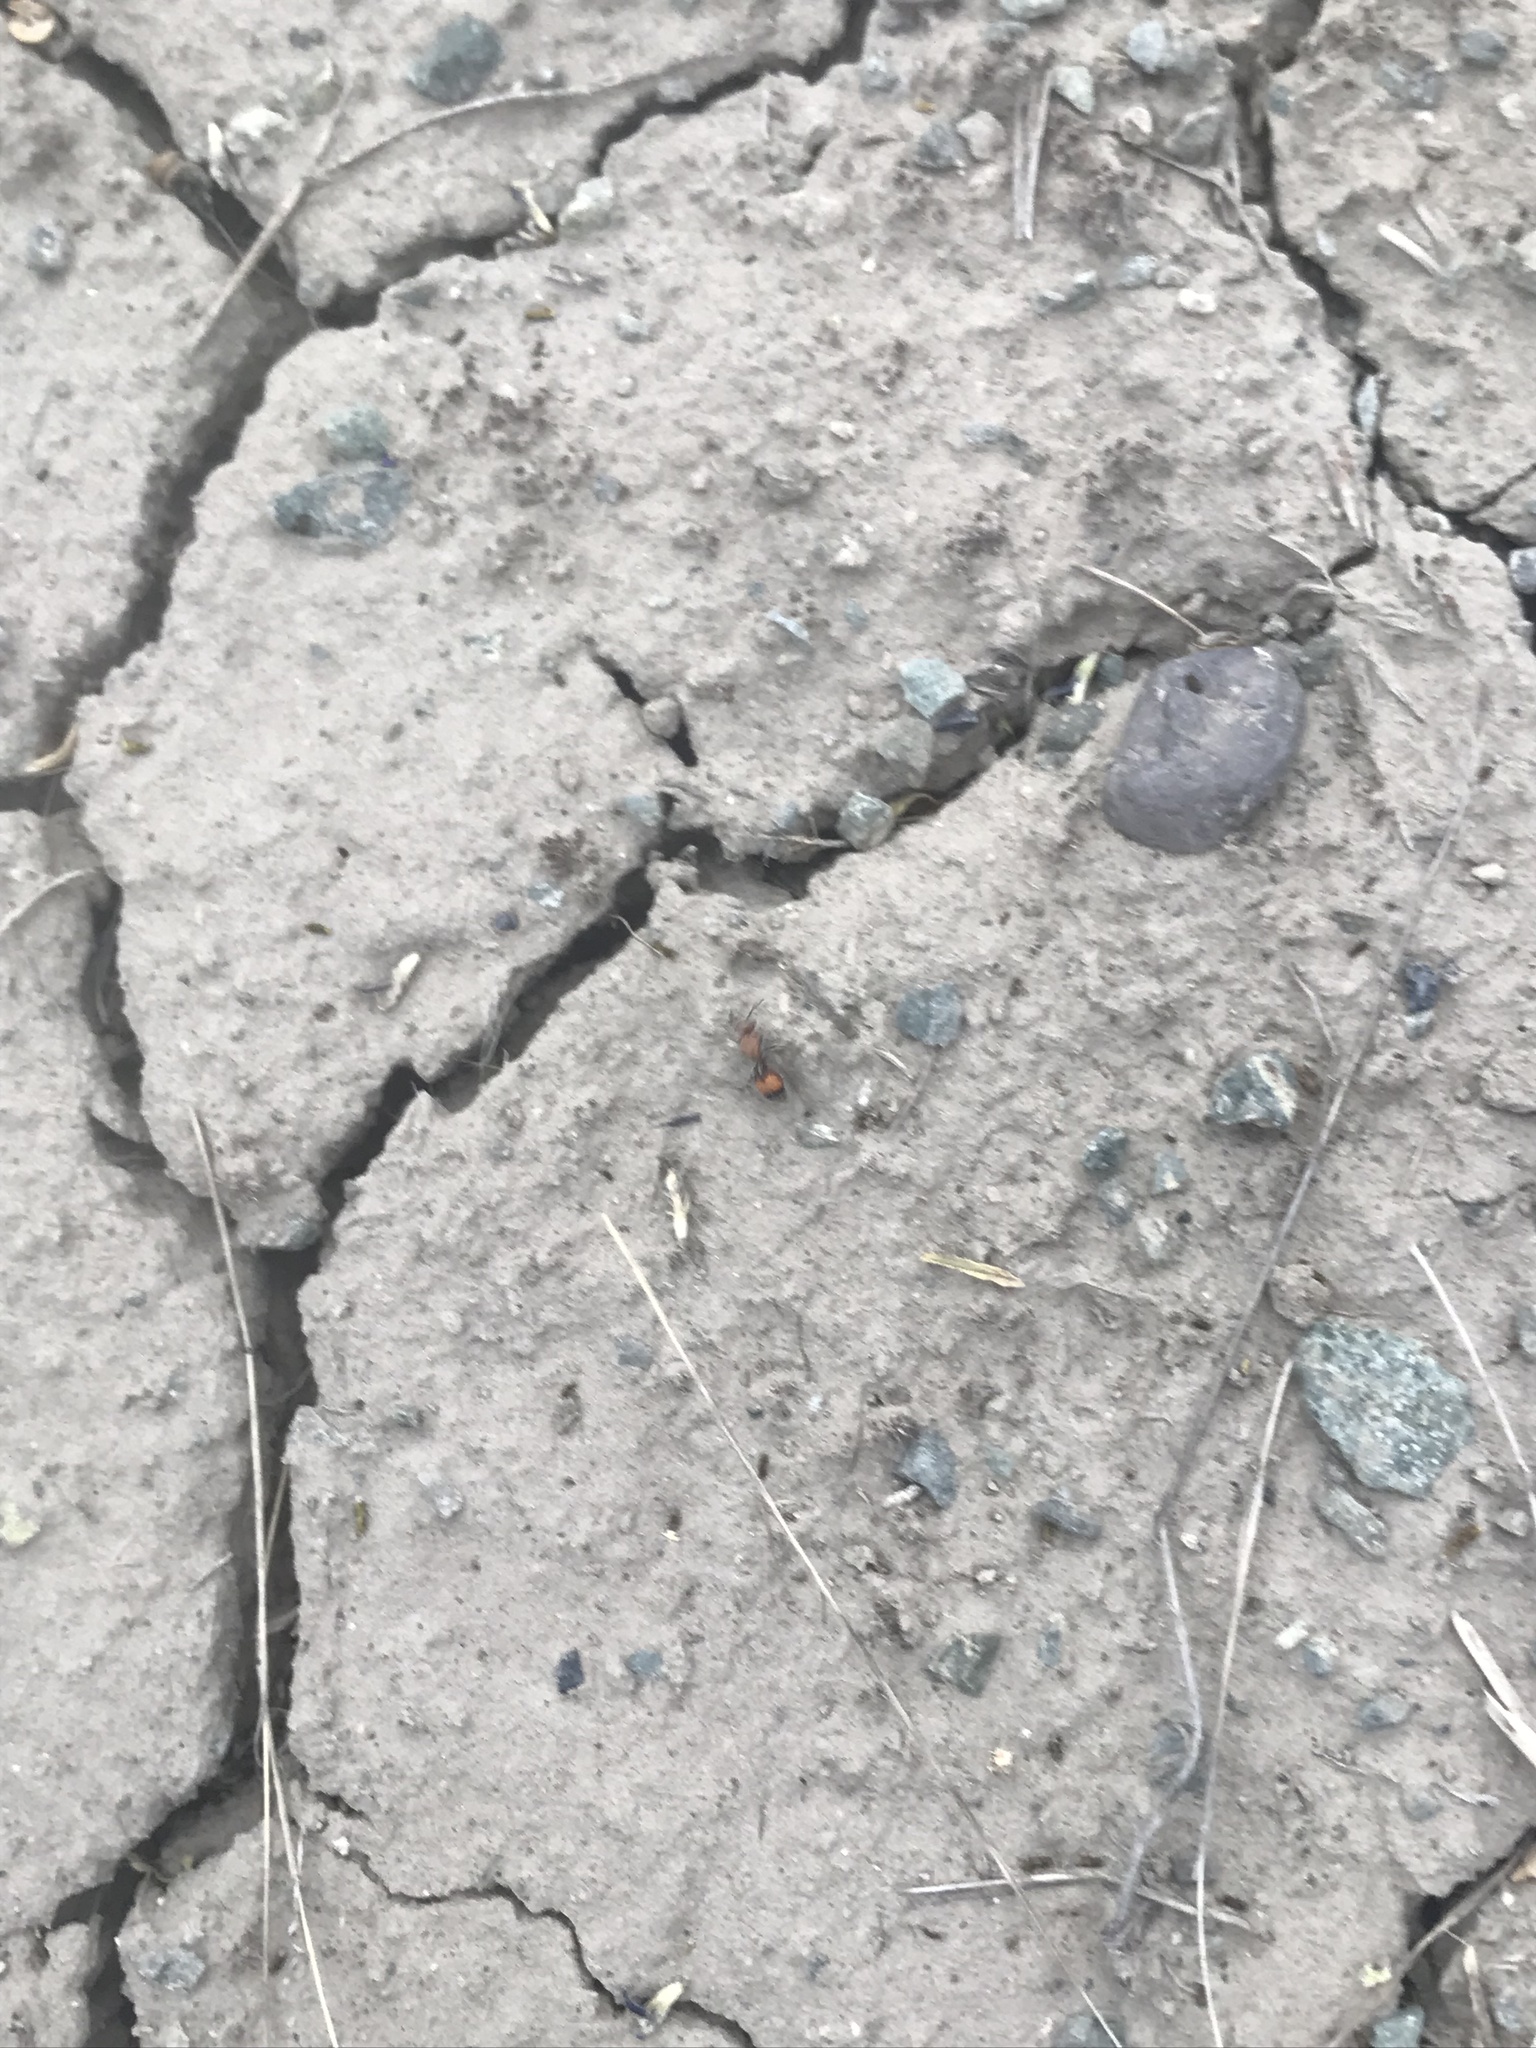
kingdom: Animalia
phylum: Arthropoda
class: Insecta
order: Hymenoptera
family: Mutillidae
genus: Dasymutilla
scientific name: Dasymutilla
